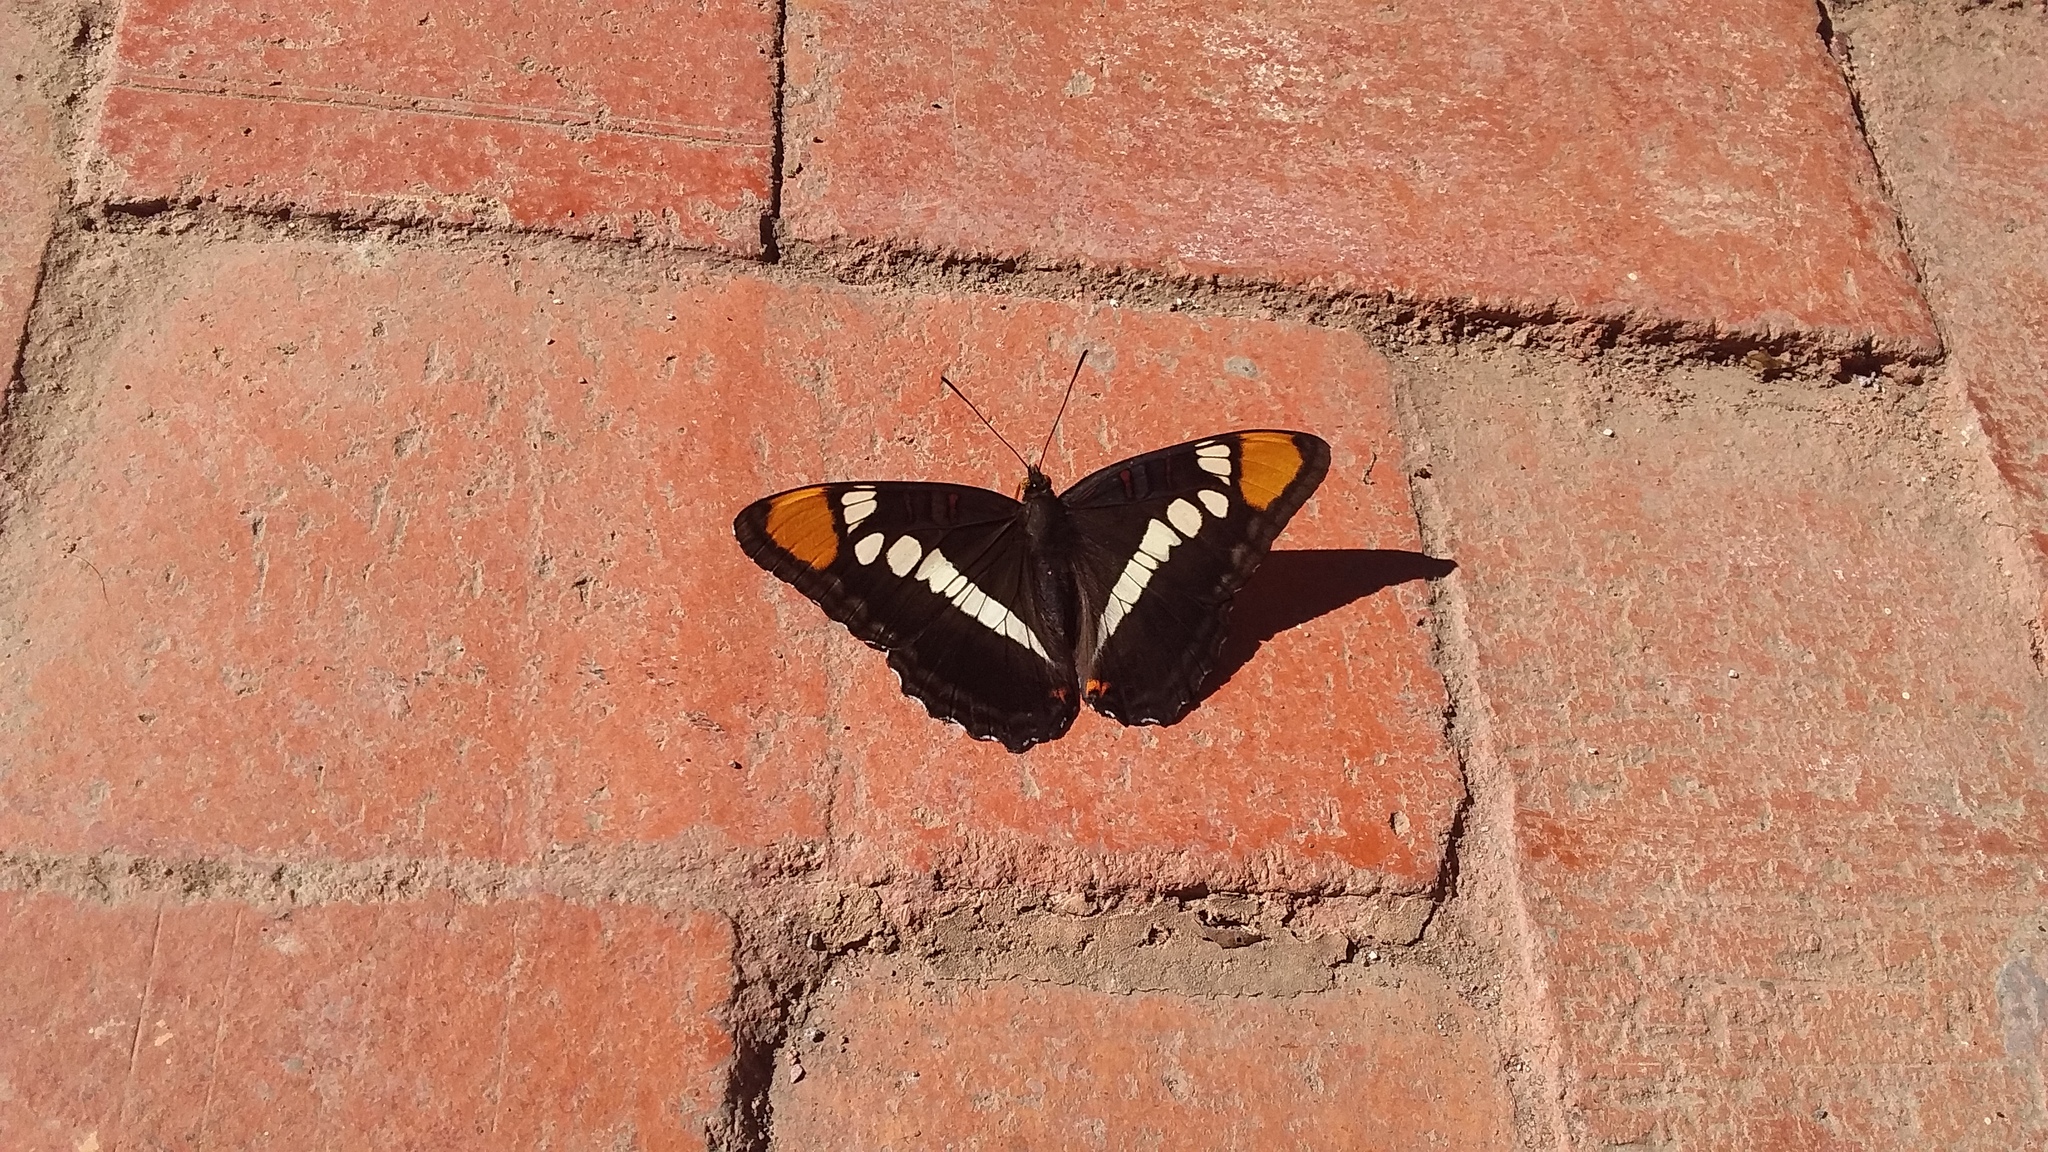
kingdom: Animalia
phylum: Arthropoda
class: Insecta
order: Lepidoptera
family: Nymphalidae
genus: Limenitis
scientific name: Limenitis bredowii
